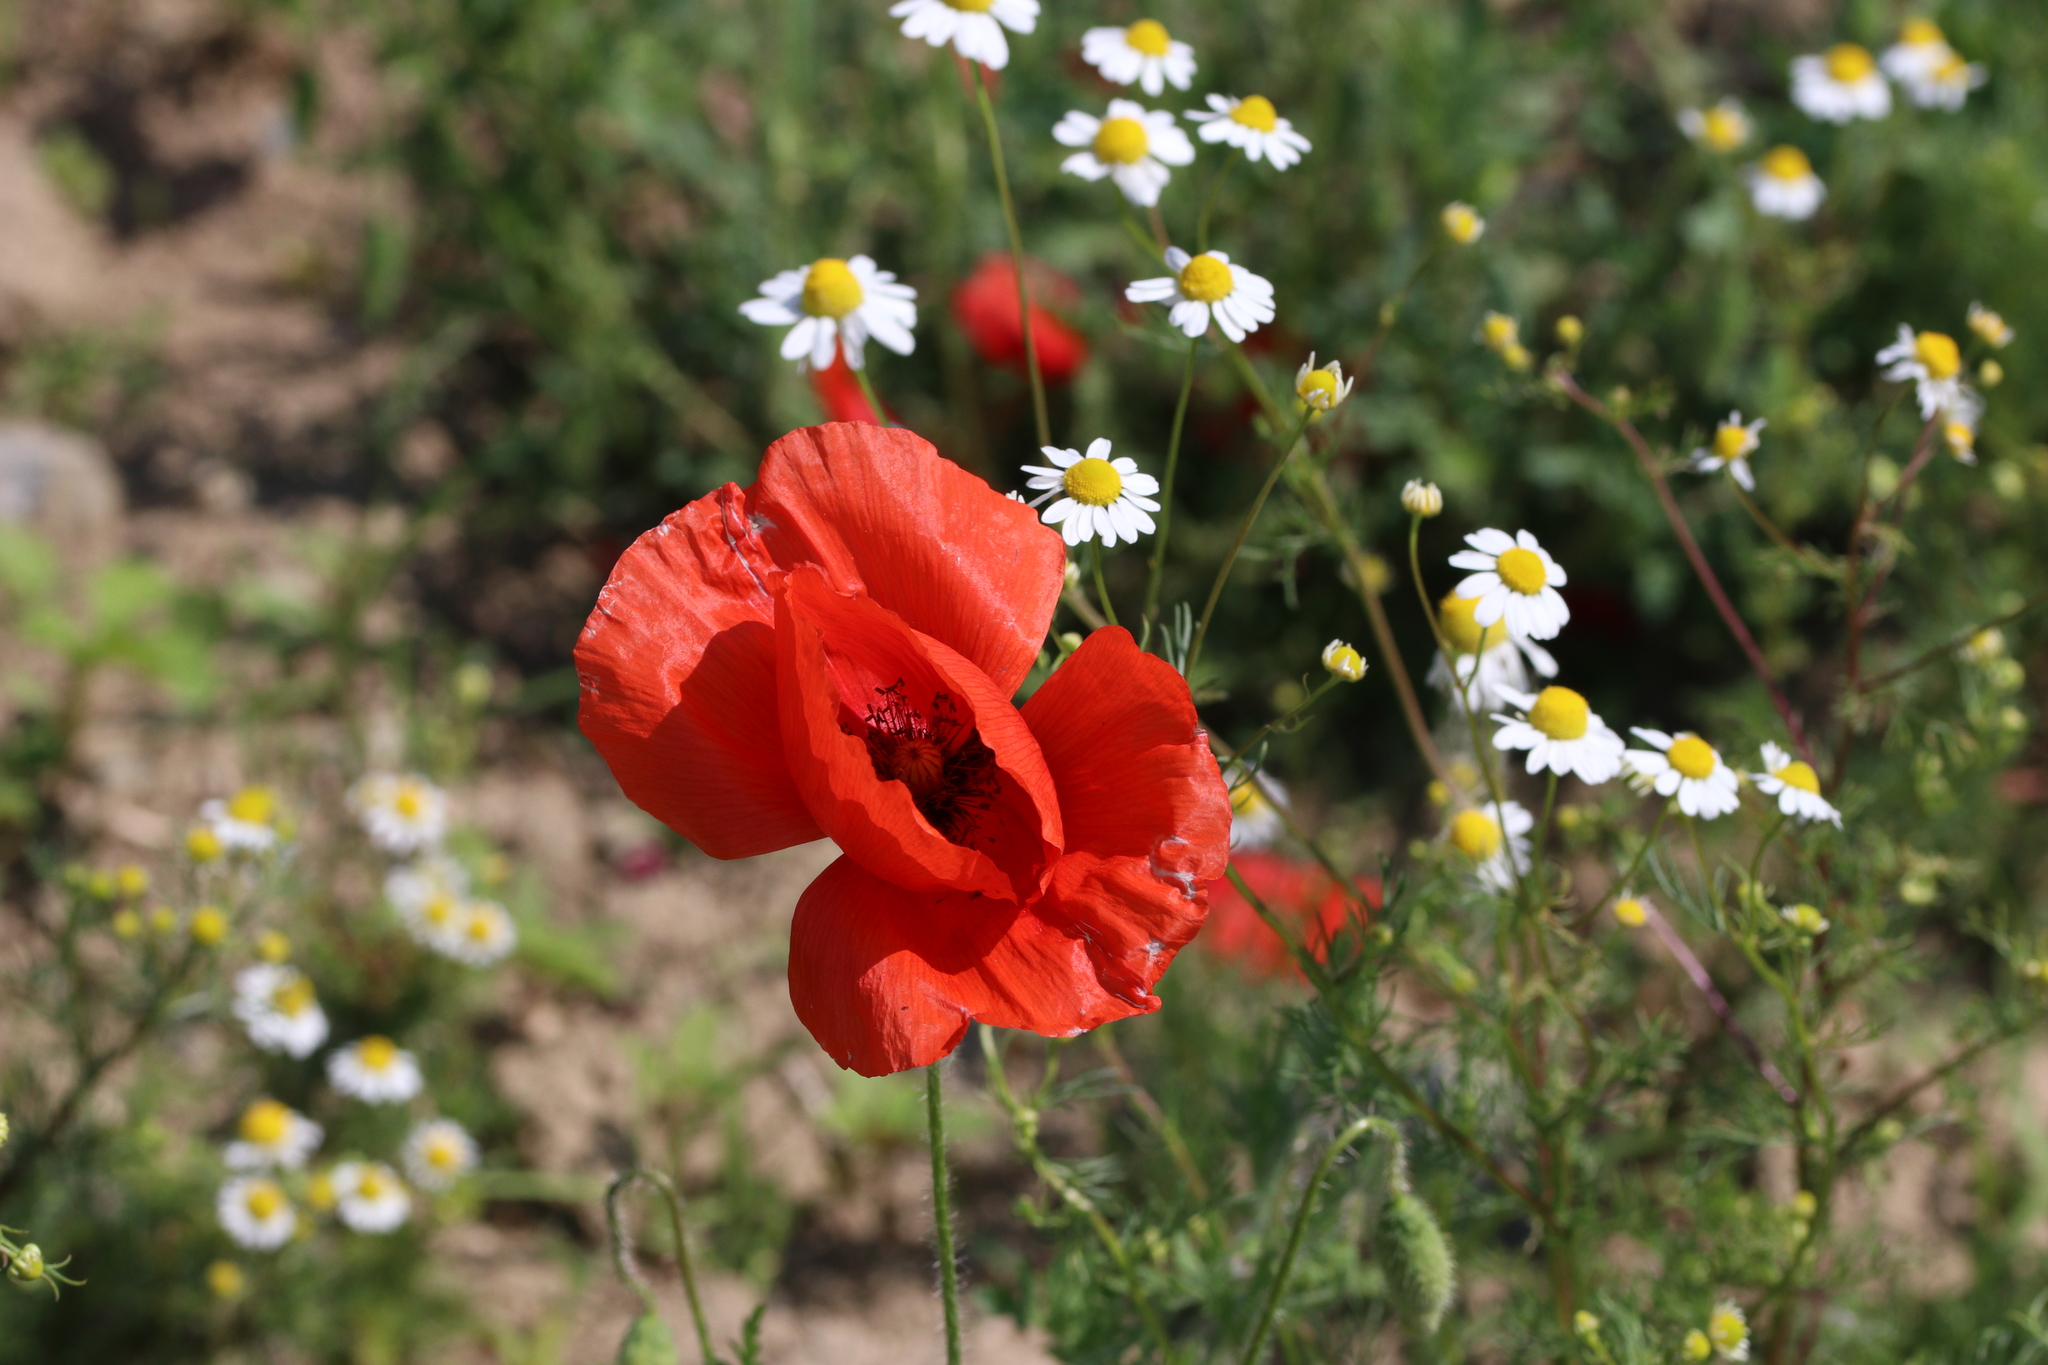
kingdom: Plantae
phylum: Tracheophyta
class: Magnoliopsida
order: Ranunculales
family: Papaveraceae
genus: Papaver
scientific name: Papaver rhoeas
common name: Corn poppy
